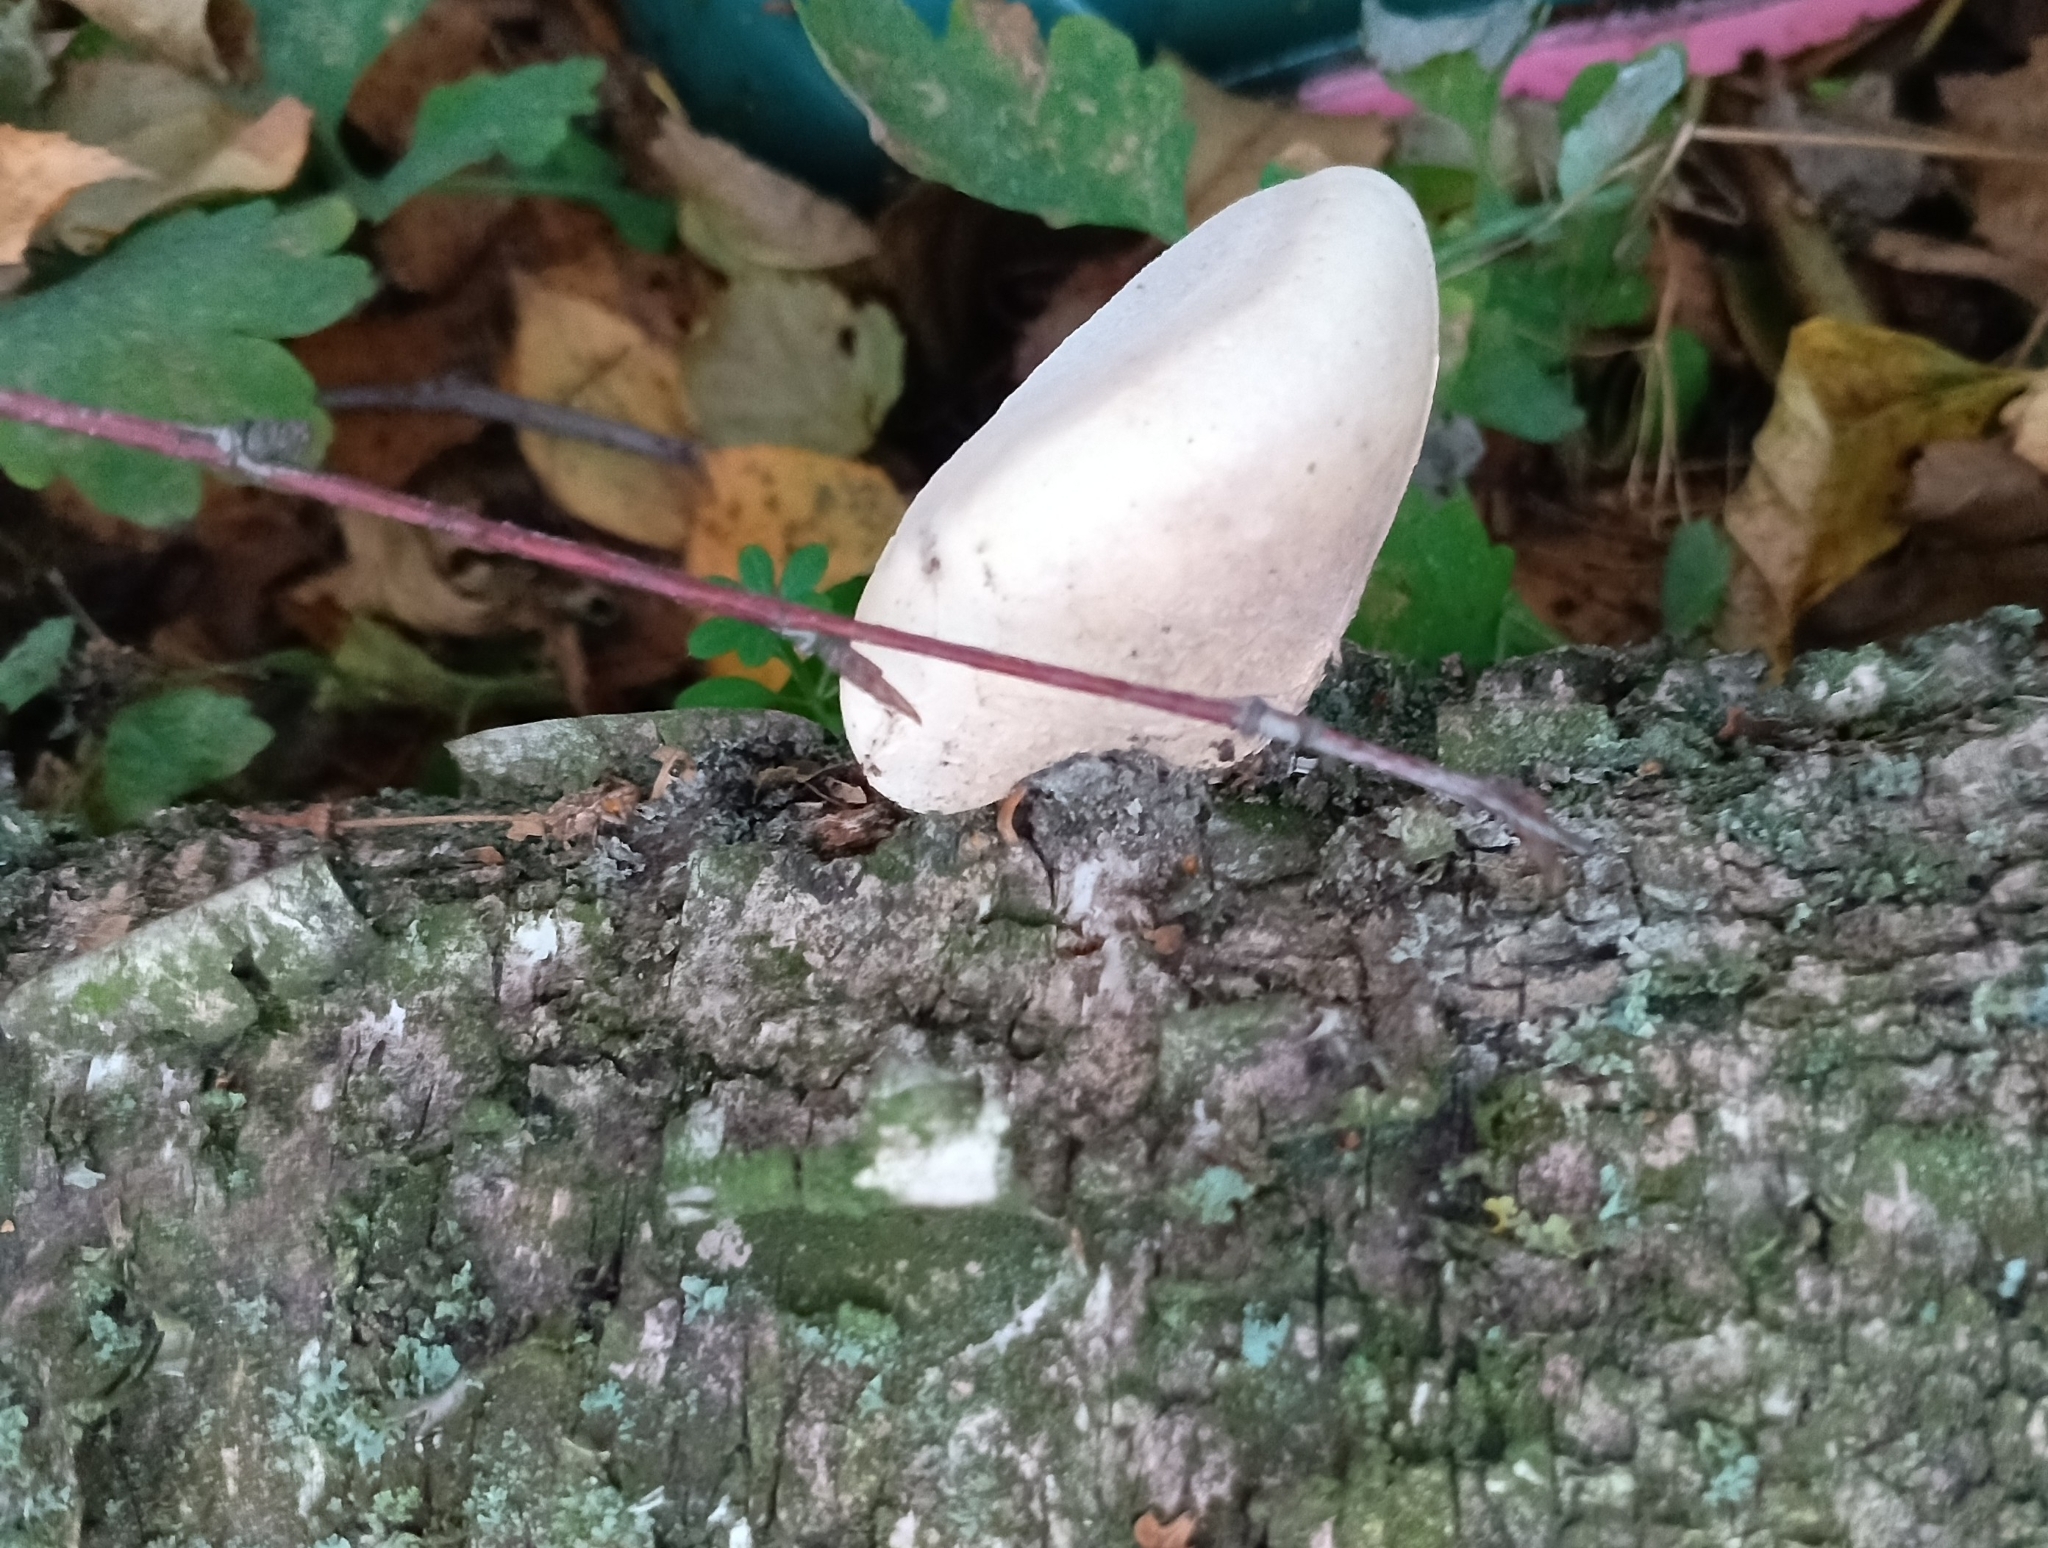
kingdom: Fungi
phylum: Basidiomycota
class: Agaricomycetes
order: Polyporales
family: Fomitopsidaceae
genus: Fomitopsis
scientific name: Fomitopsis betulina
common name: Birch polypore
